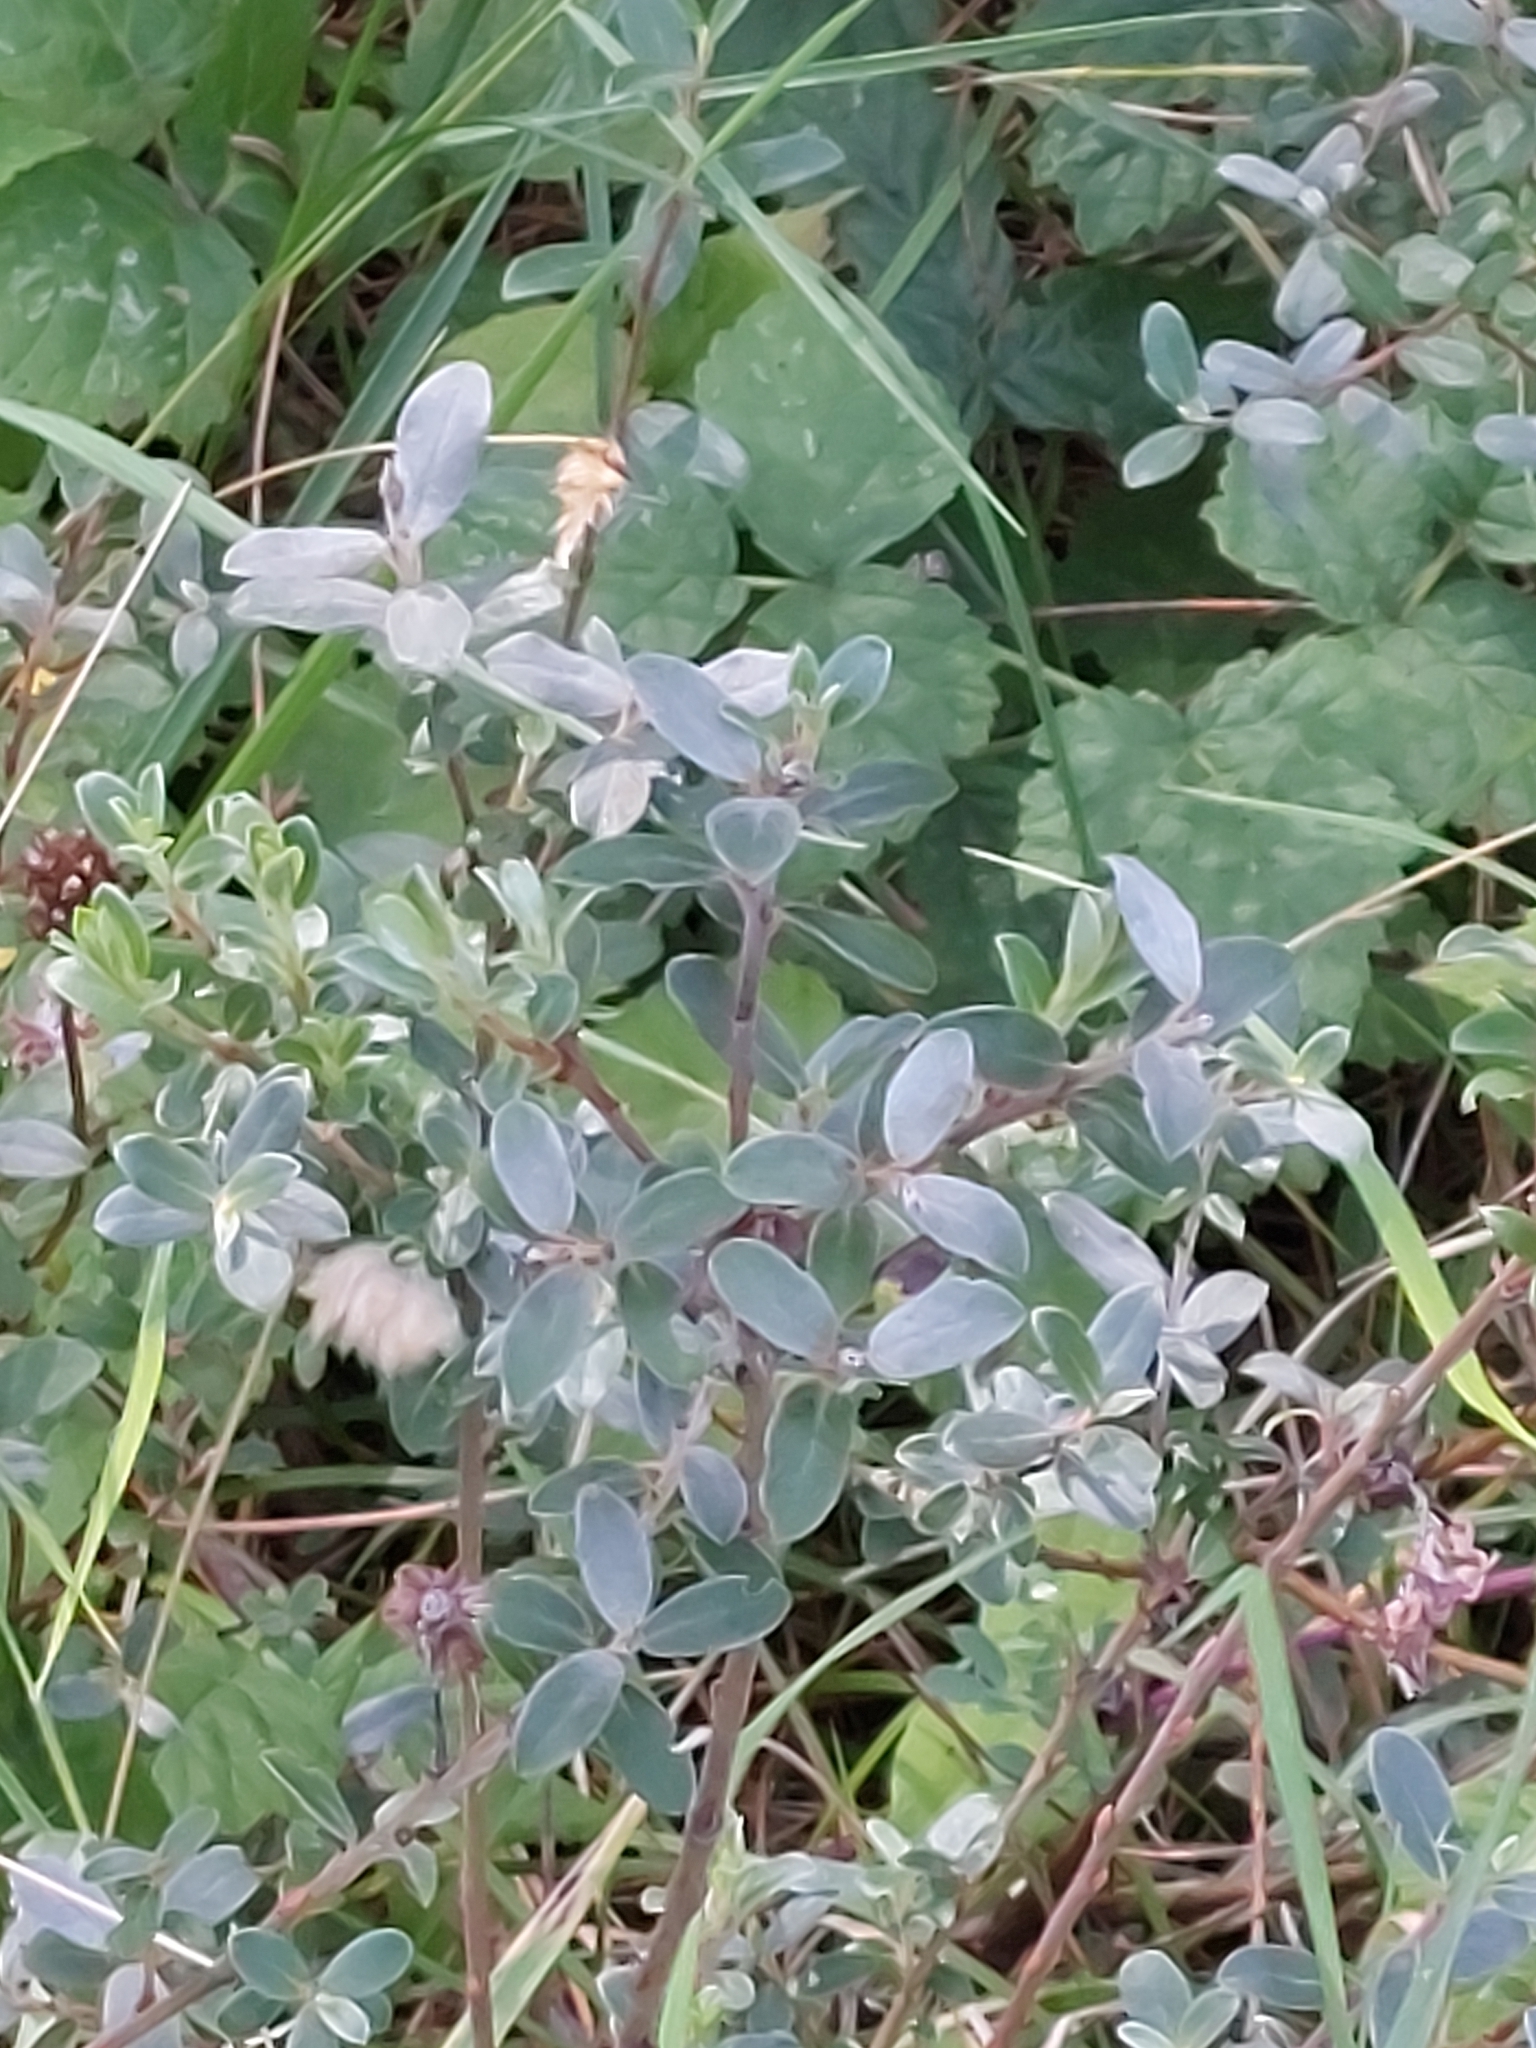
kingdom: Plantae
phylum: Tracheophyta
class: Magnoliopsida
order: Malpighiales
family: Salicaceae
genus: Salix
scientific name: Salix repens
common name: Creeping willow
